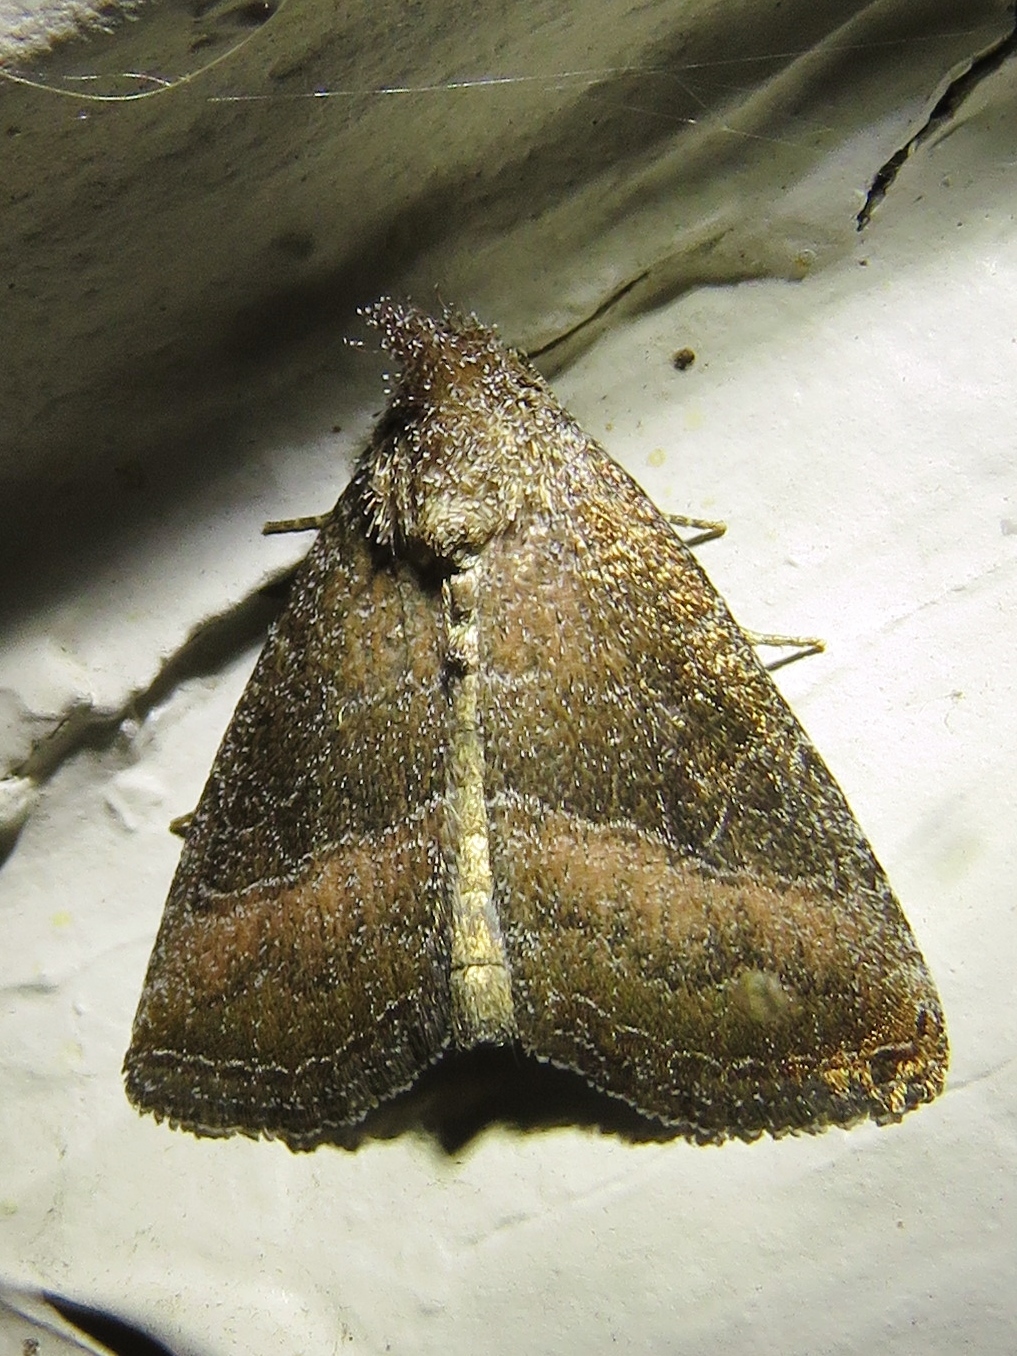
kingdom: Animalia
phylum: Arthropoda
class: Insecta
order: Lepidoptera
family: Noctuidae
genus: Ogdoconta
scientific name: Ogdoconta cinereola
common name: Common pinkband
